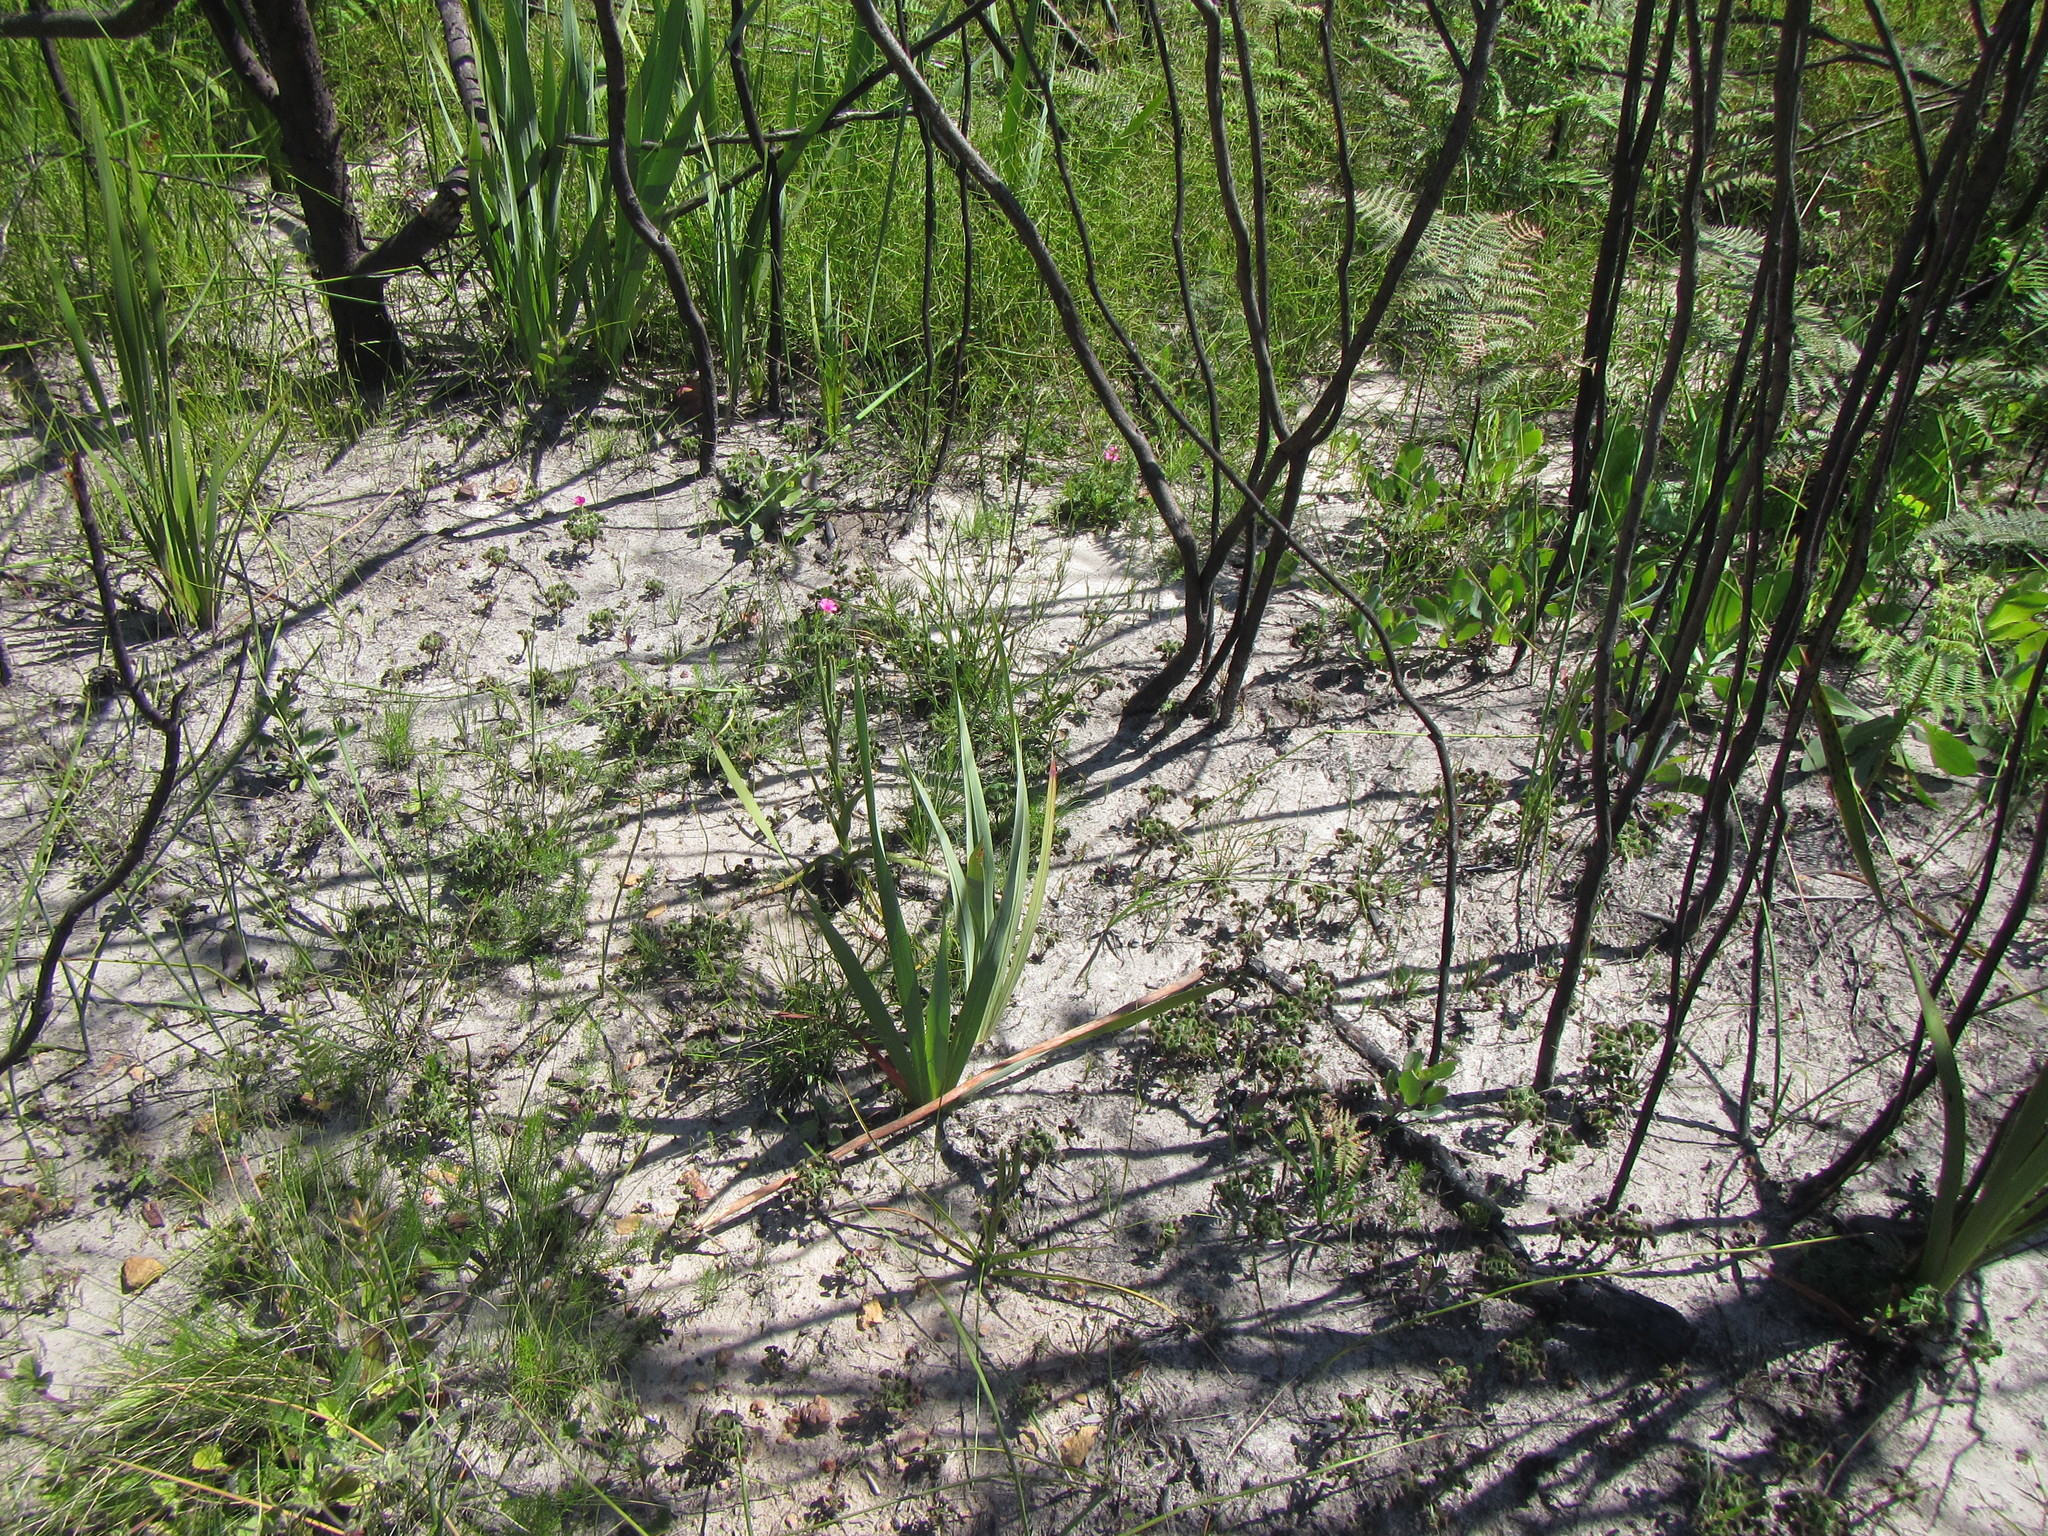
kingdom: Plantae
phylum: Tracheophyta
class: Magnoliopsida
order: Oxalidales
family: Oxalidaceae
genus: Oxalis
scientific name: Oxalis lanata
